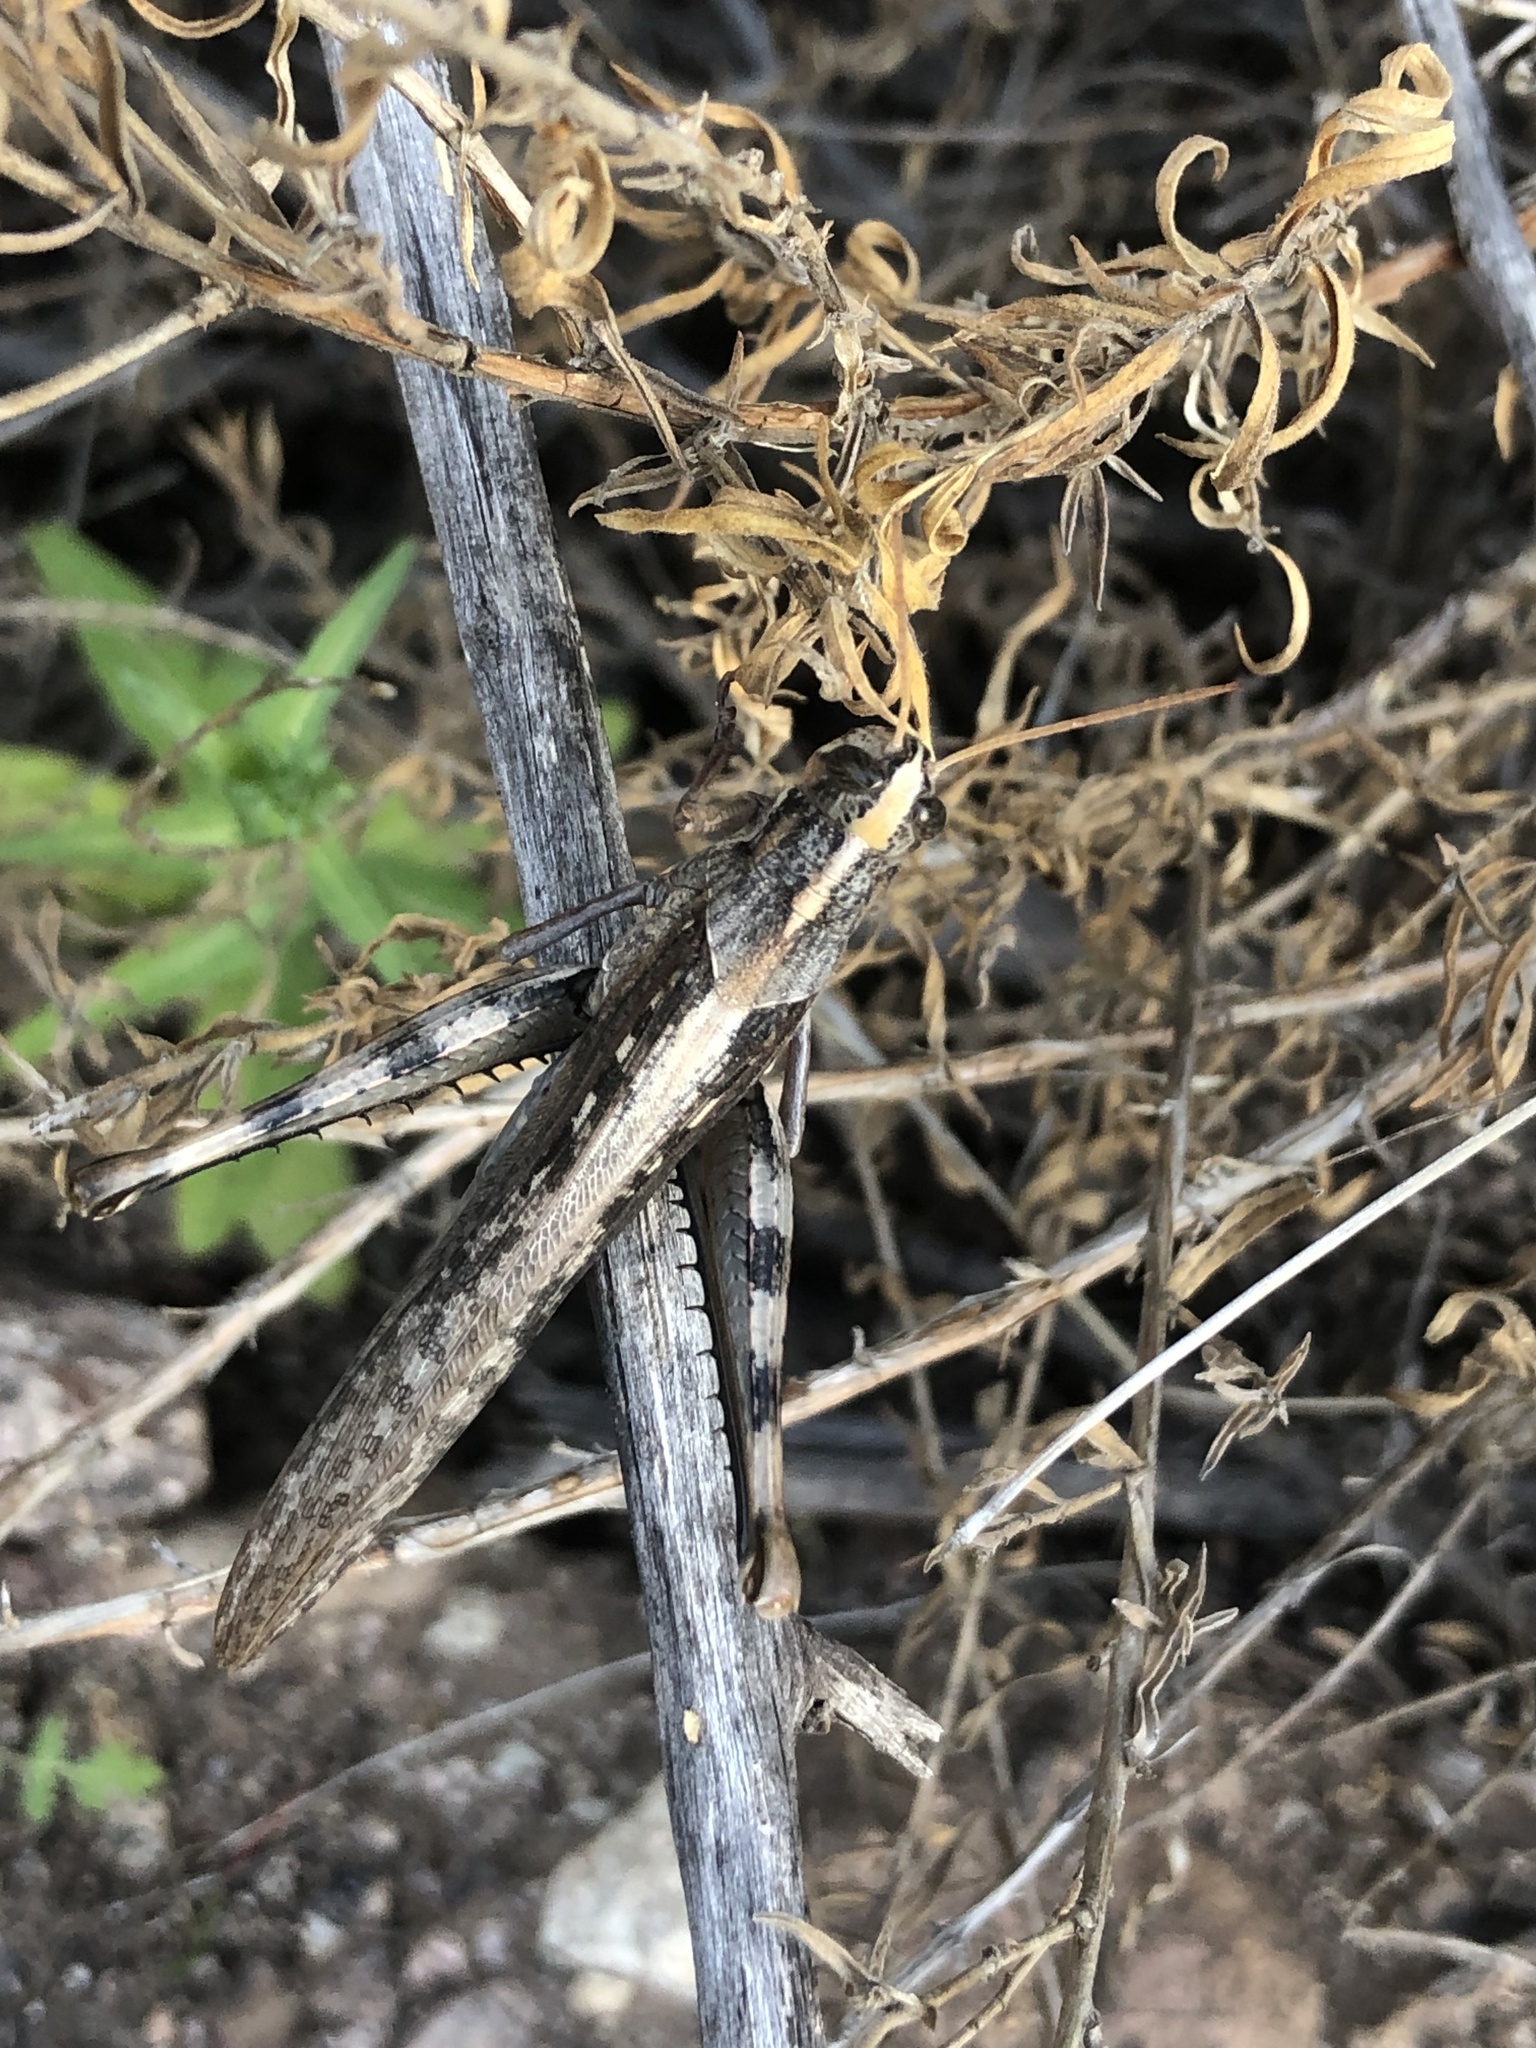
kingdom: Animalia
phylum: Arthropoda
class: Insecta
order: Orthoptera
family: Acrididae
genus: Schistocerca
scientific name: Schistocerca nitens
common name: Vagrant grasshopper
